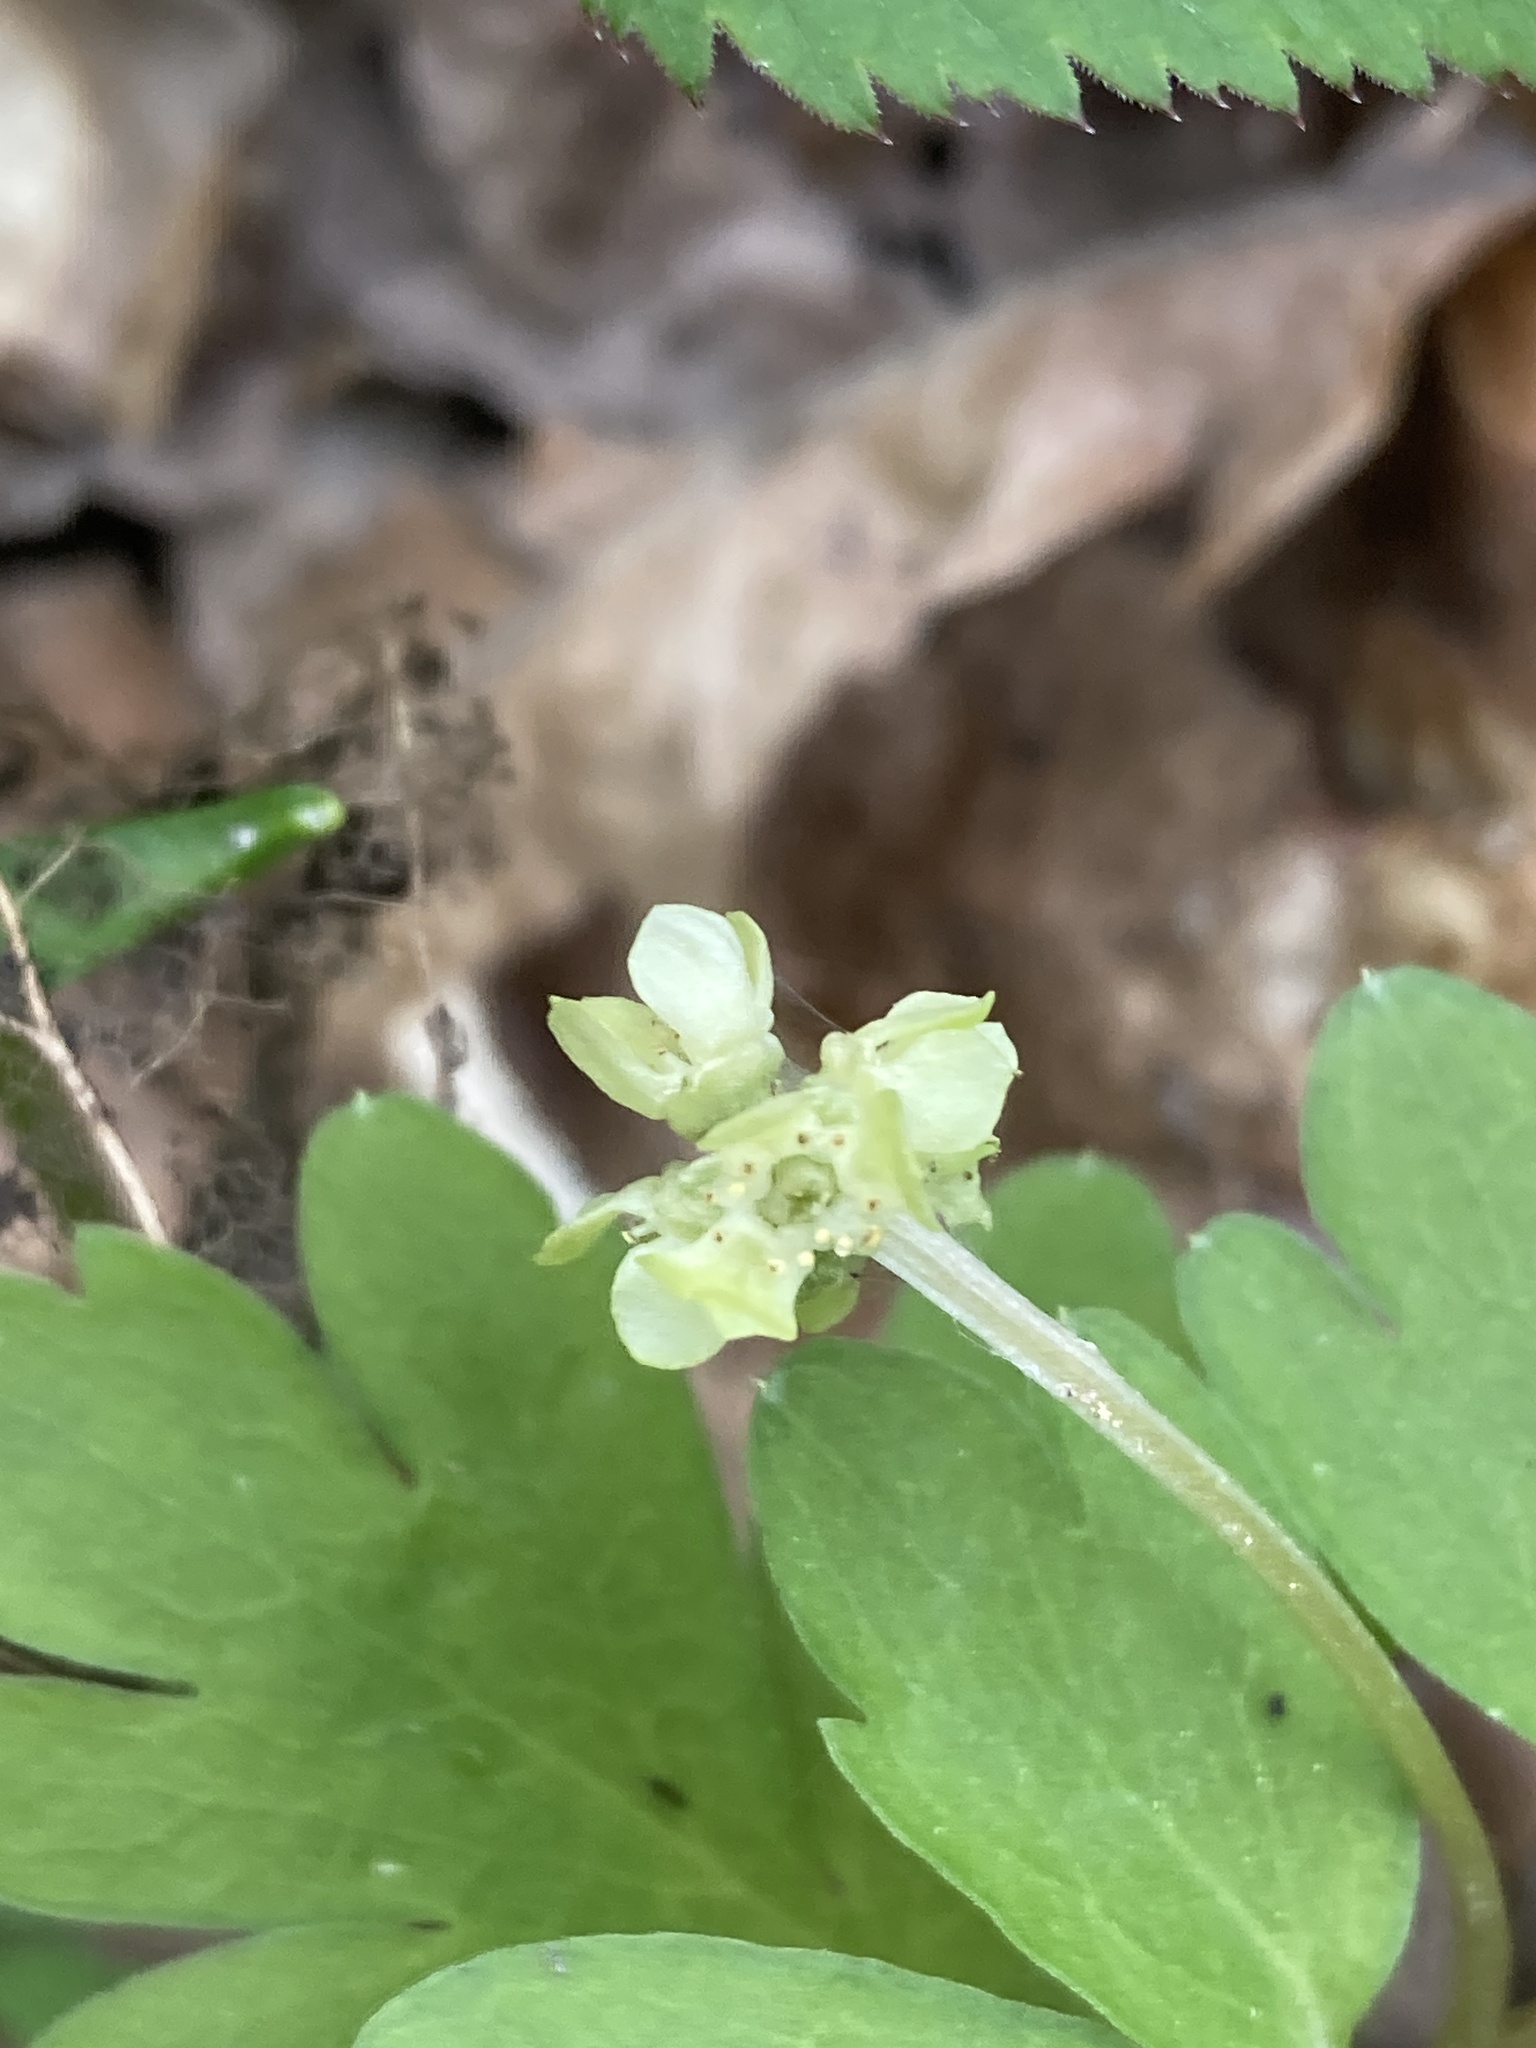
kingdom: Plantae
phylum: Tracheophyta
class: Magnoliopsida
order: Dipsacales
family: Viburnaceae
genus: Adoxa
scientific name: Adoxa moschatellina
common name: Moschatel
